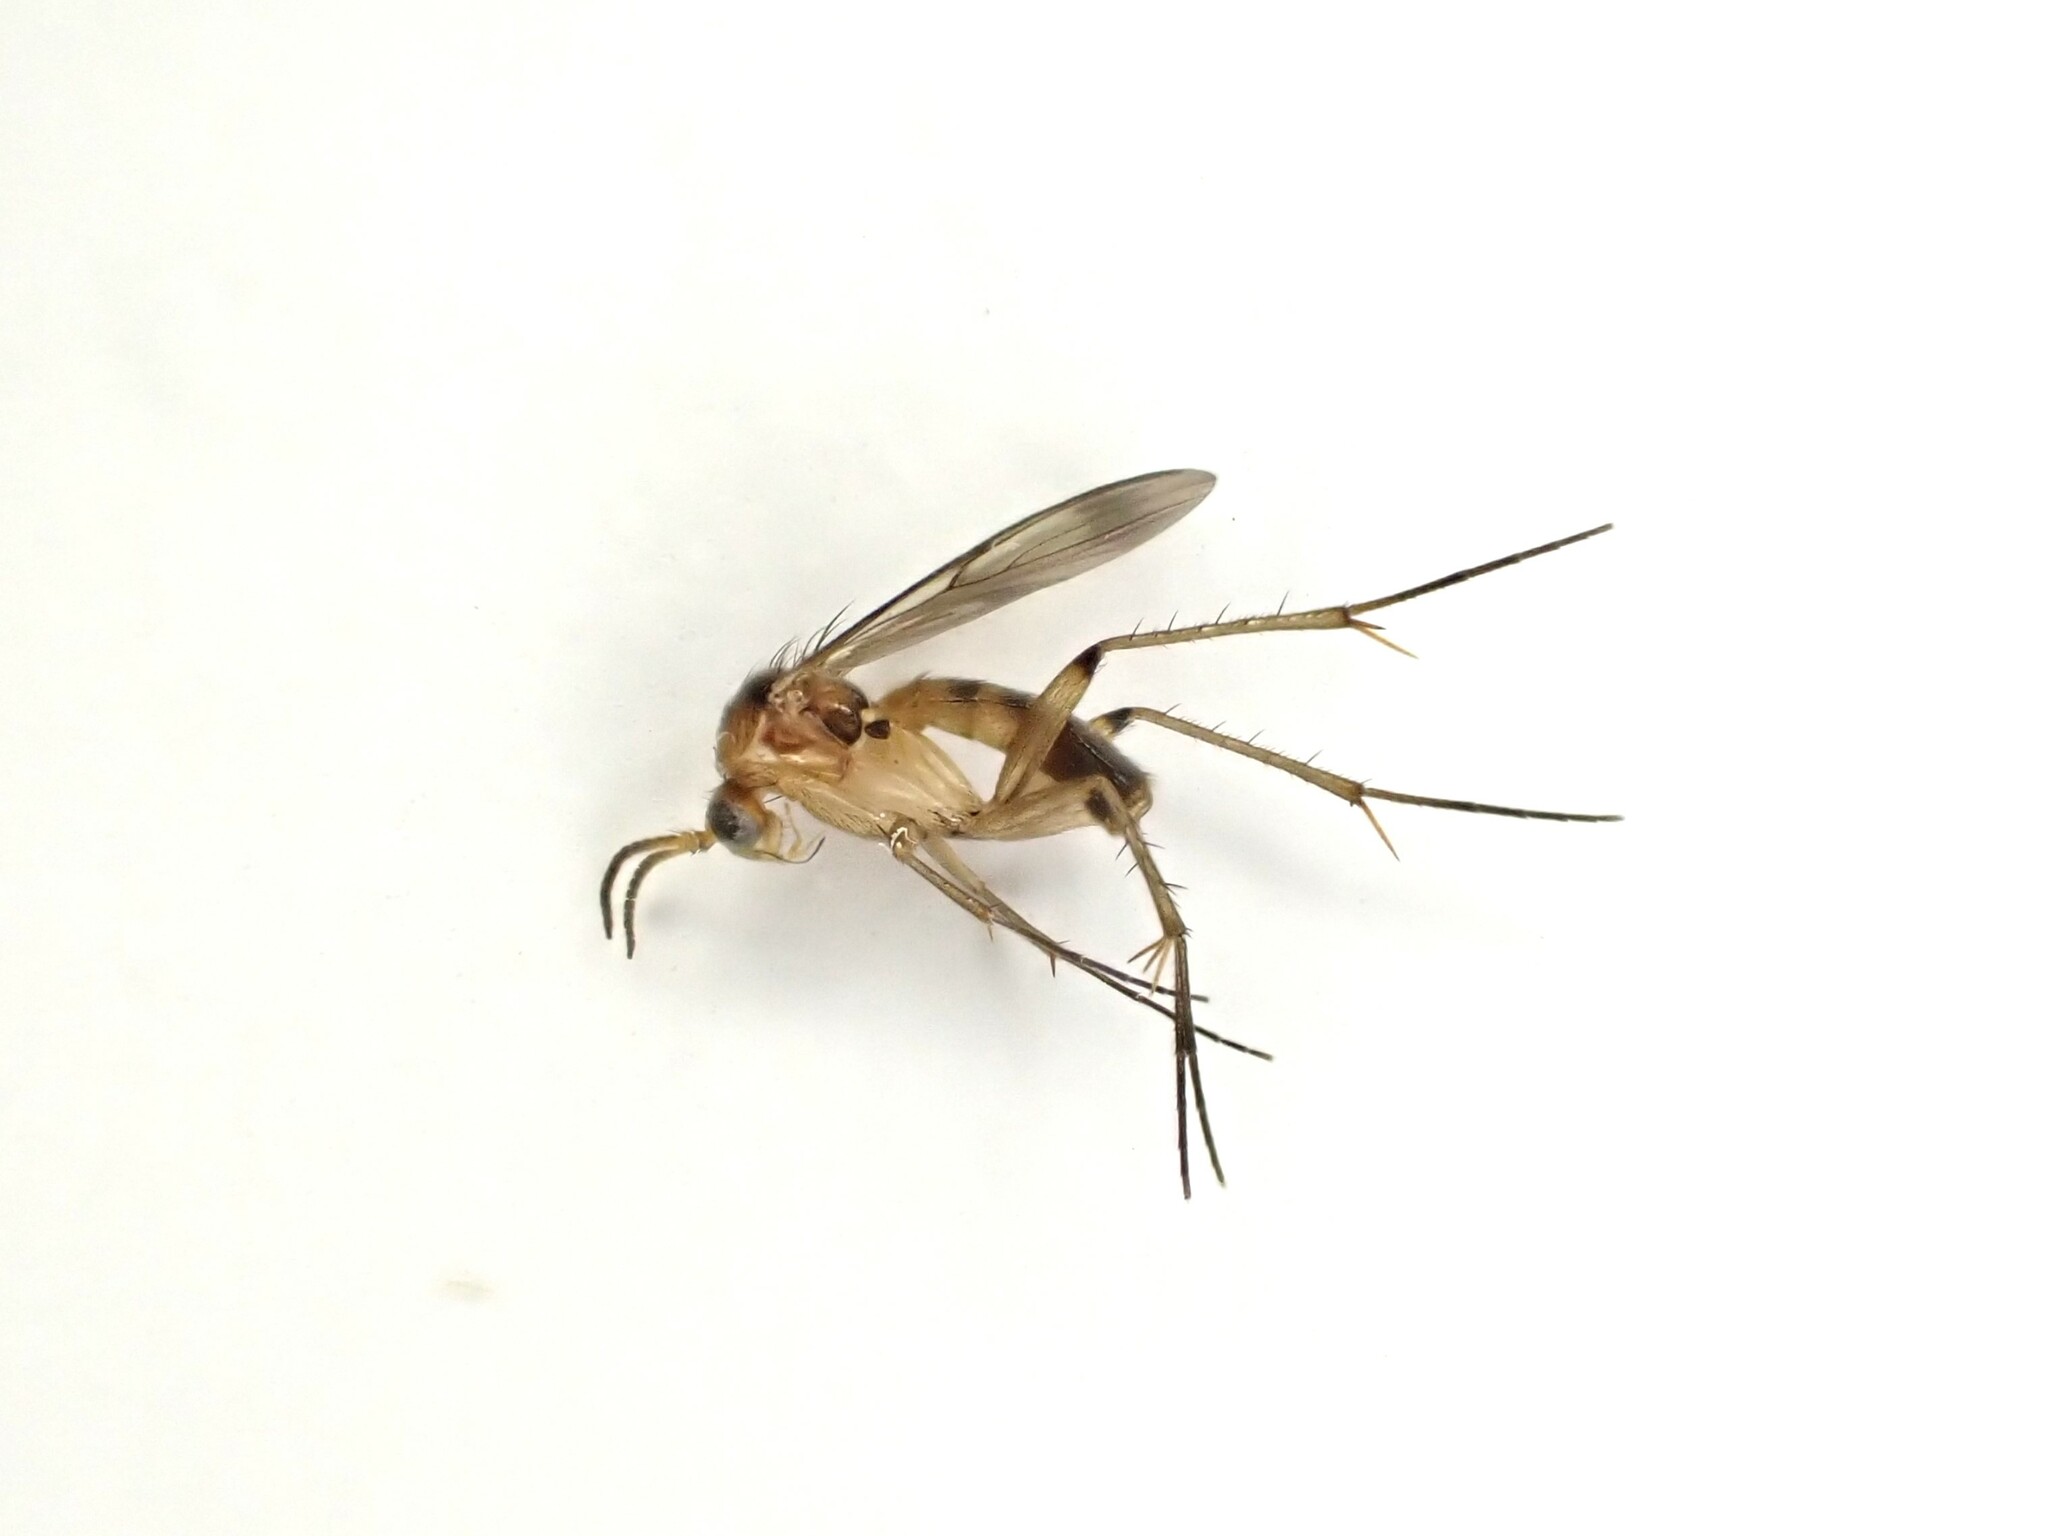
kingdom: Animalia
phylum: Arthropoda
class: Insecta
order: Diptera
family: Mycetophilidae
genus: Leia
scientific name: Leia arsona
